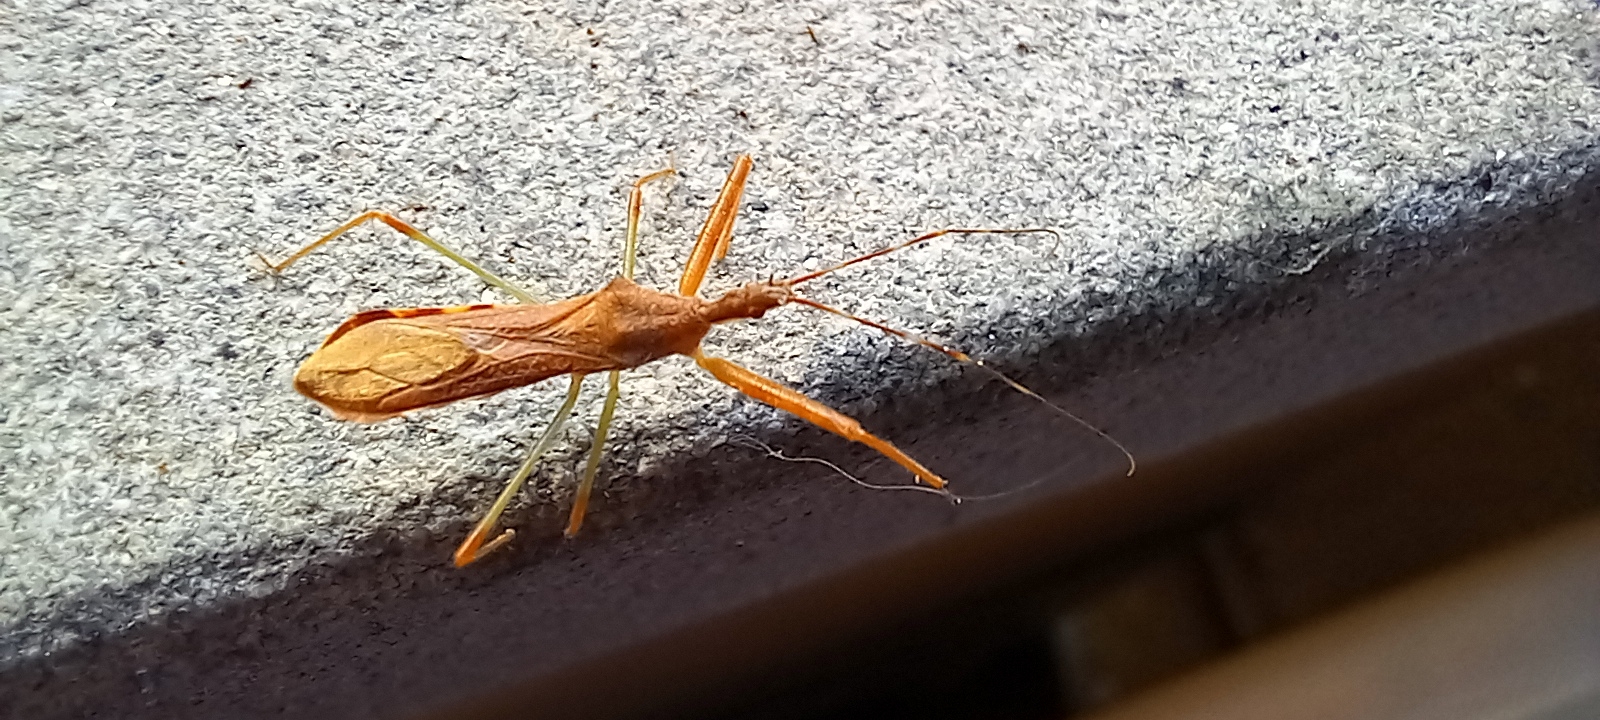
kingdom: Animalia
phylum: Arthropoda
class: Insecta
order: Hemiptera
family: Reduviidae
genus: Nagusta
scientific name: Nagusta goedelii
